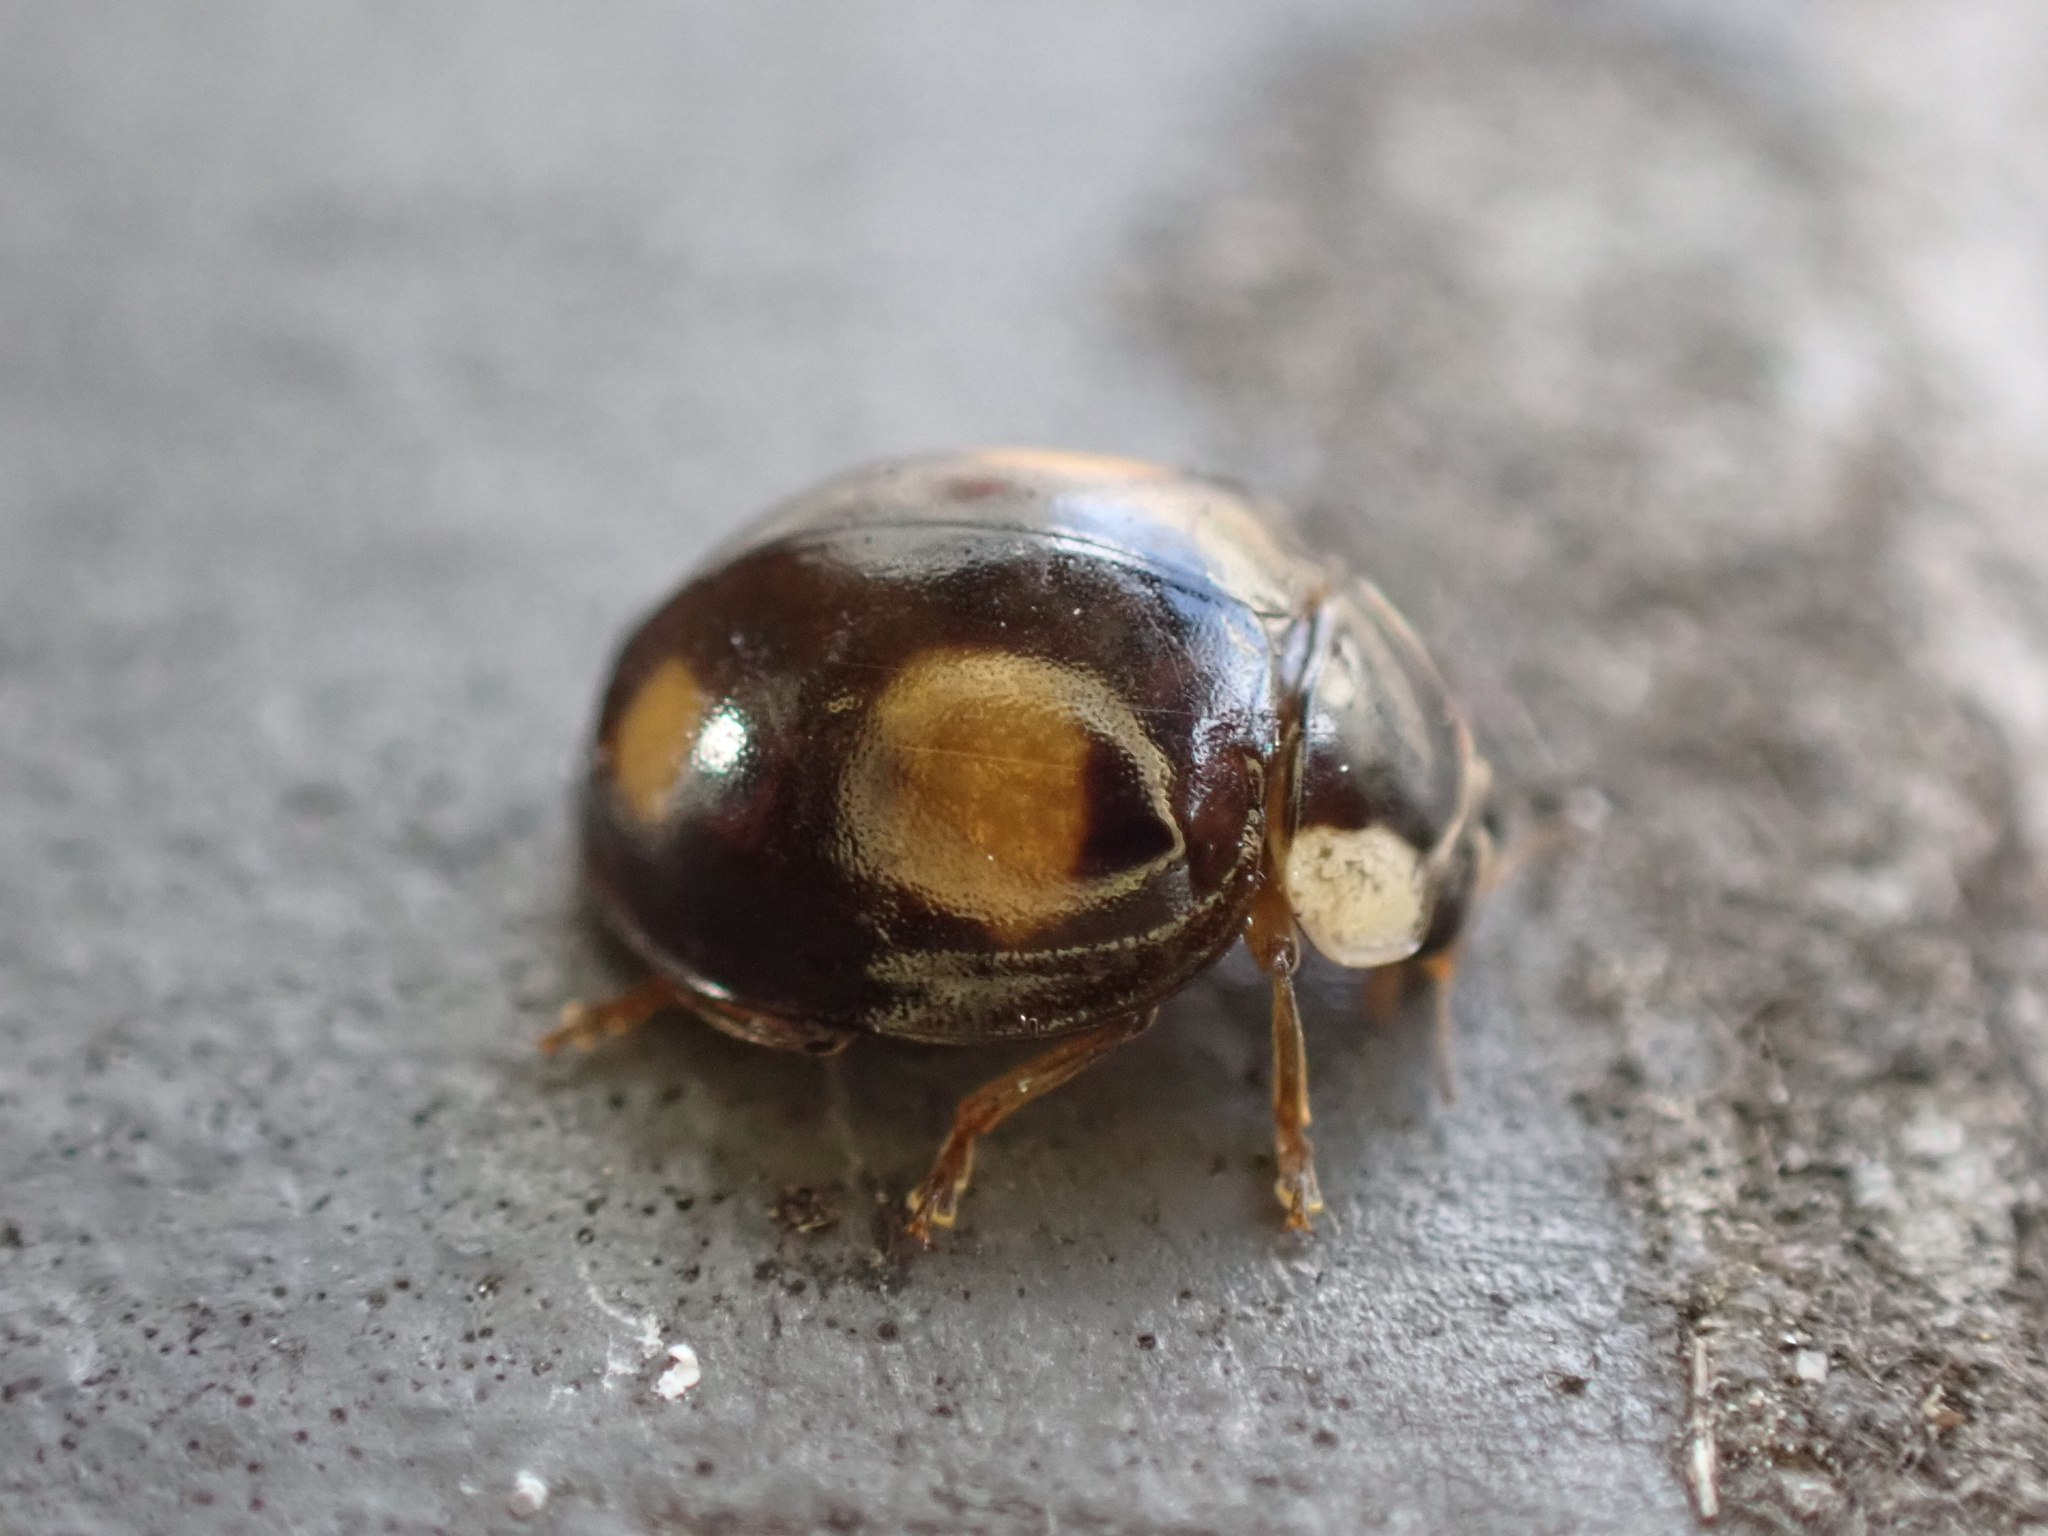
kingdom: Animalia
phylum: Arthropoda
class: Insecta
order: Coleoptera
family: Coccinellidae
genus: Harmonia
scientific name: Harmonia axyridis
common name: Harlequin ladybird
